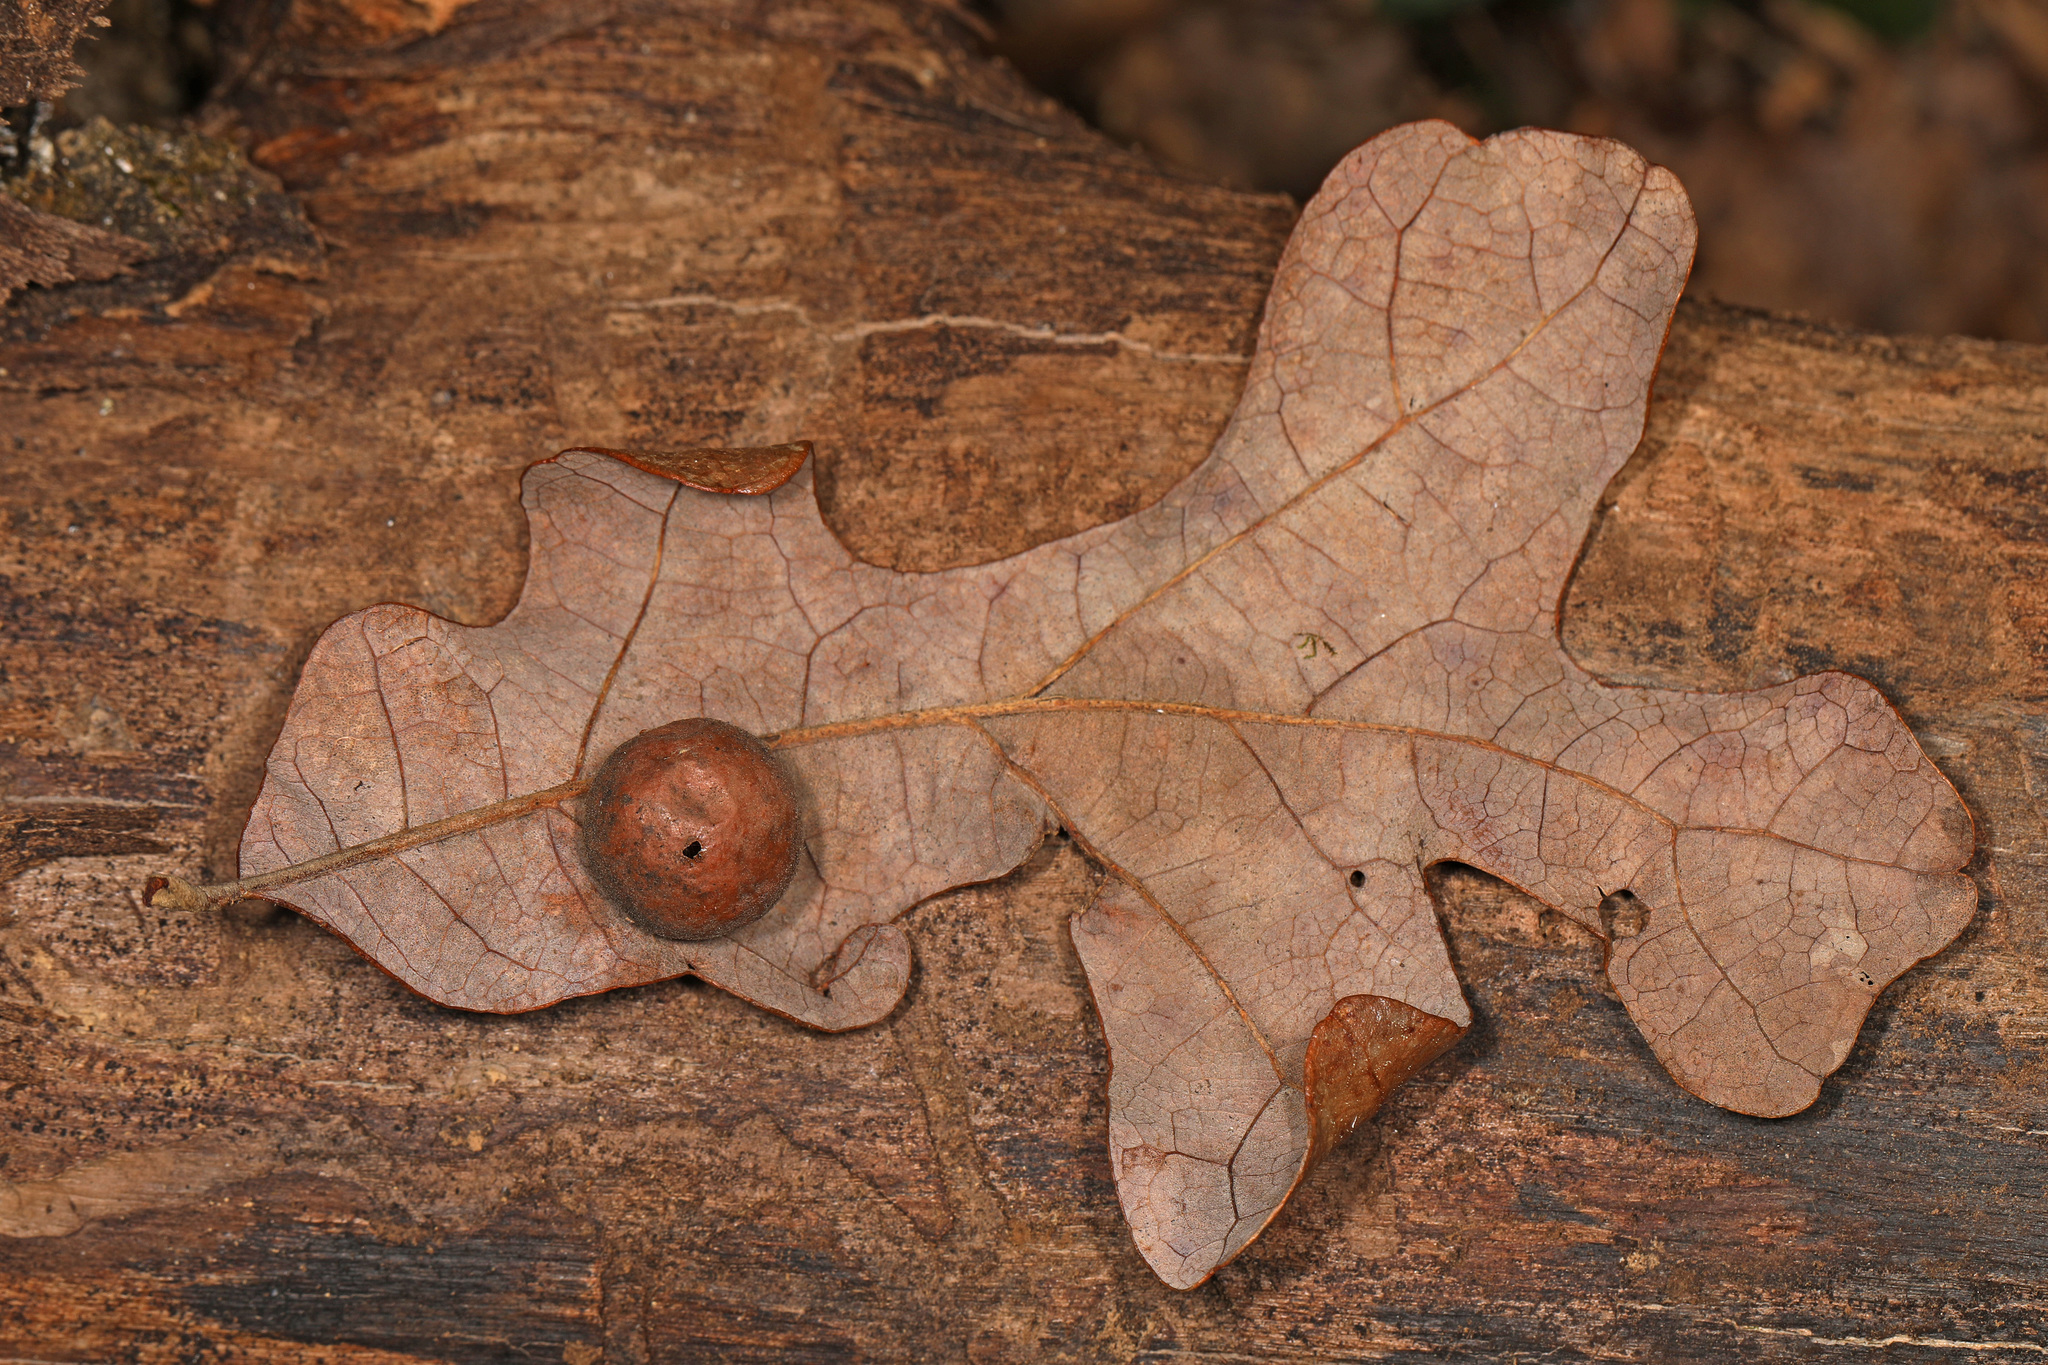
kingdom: Animalia
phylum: Arthropoda
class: Insecta
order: Hymenoptera
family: Cynipidae
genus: Atrusca
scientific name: Atrusca
